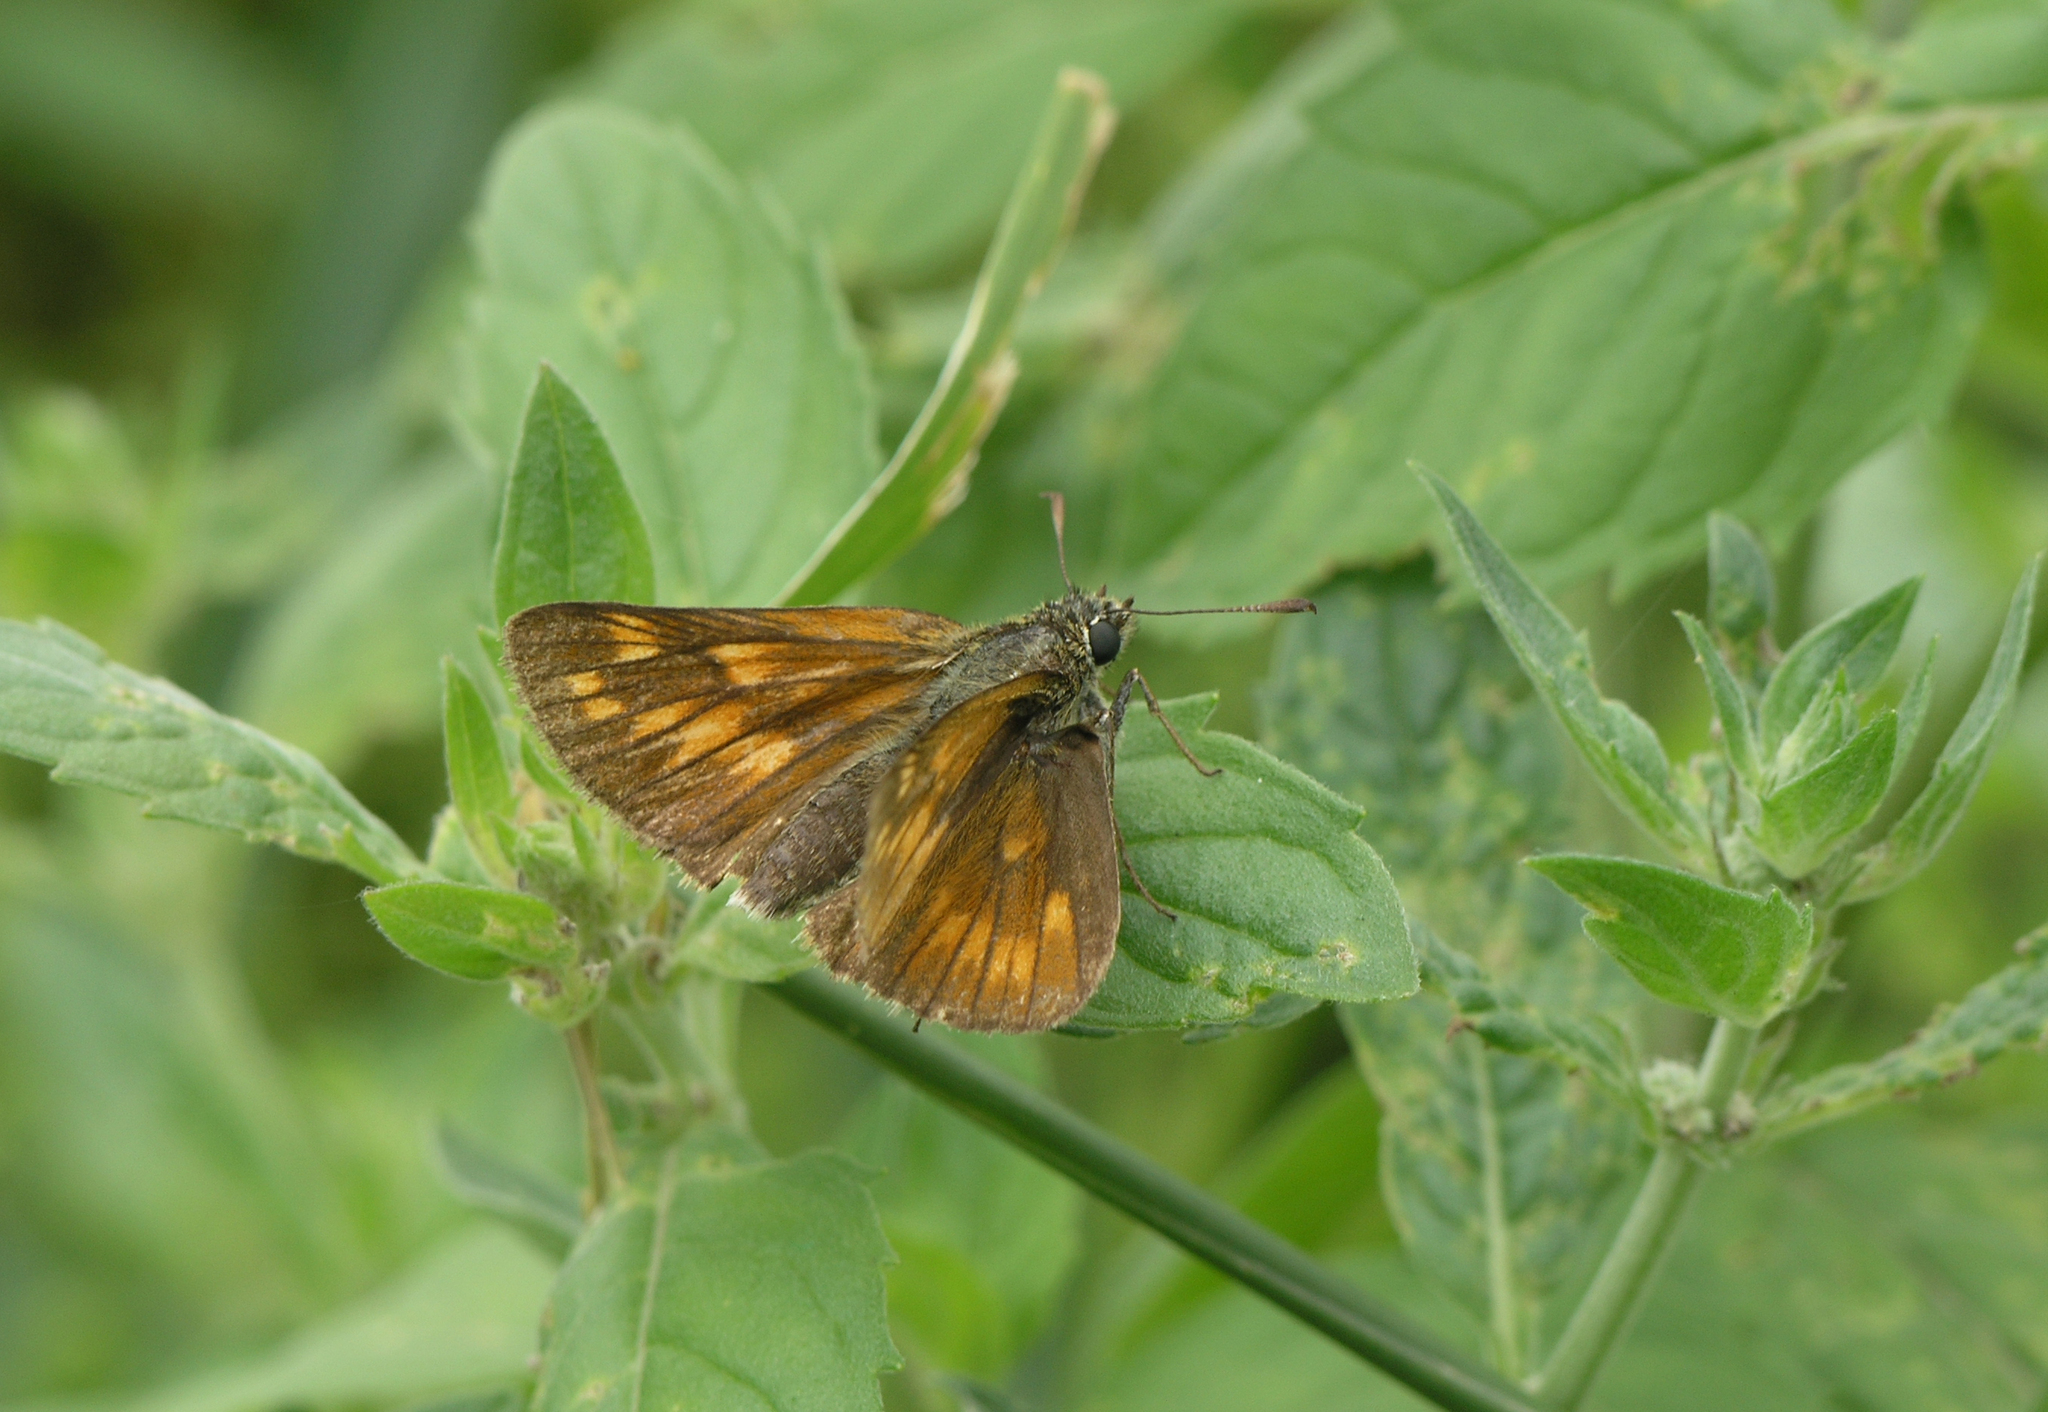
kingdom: Animalia
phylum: Arthropoda
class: Insecta
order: Lepidoptera
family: Hesperiidae
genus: Ochlodes
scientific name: Ochlodes venata
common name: Large skipper
